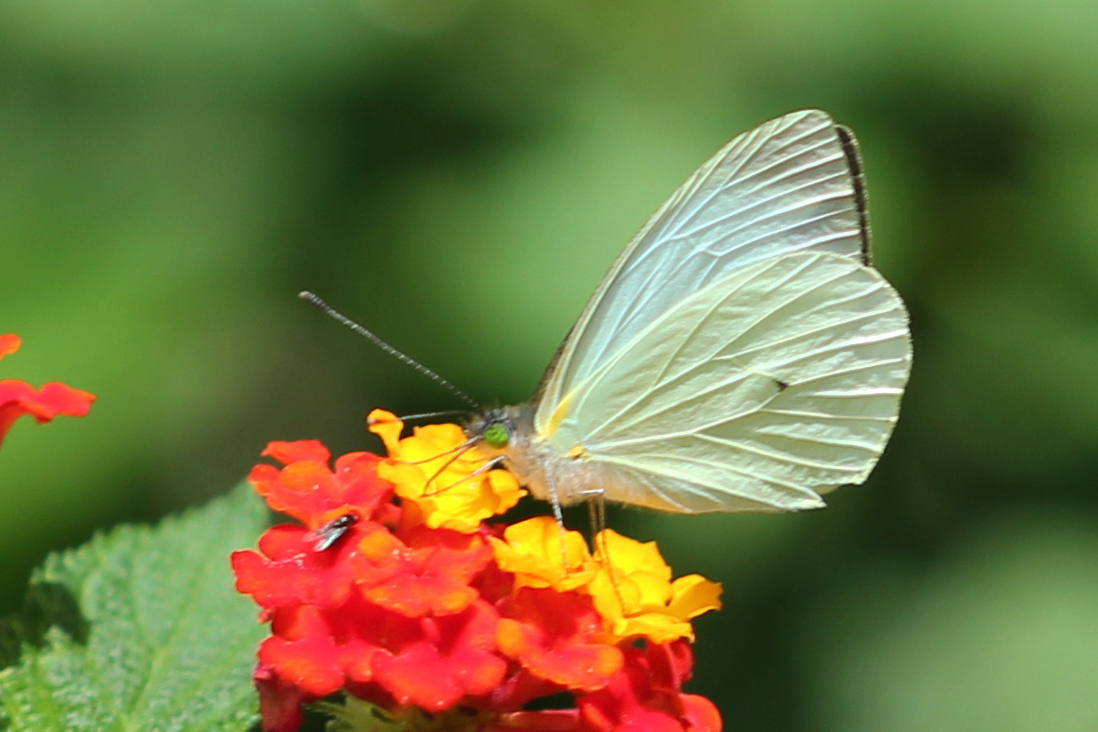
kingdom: Animalia
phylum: Arthropoda
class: Insecta
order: Lepidoptera
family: Pieridae
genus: Leptophobia
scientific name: Leptophobia aripa
